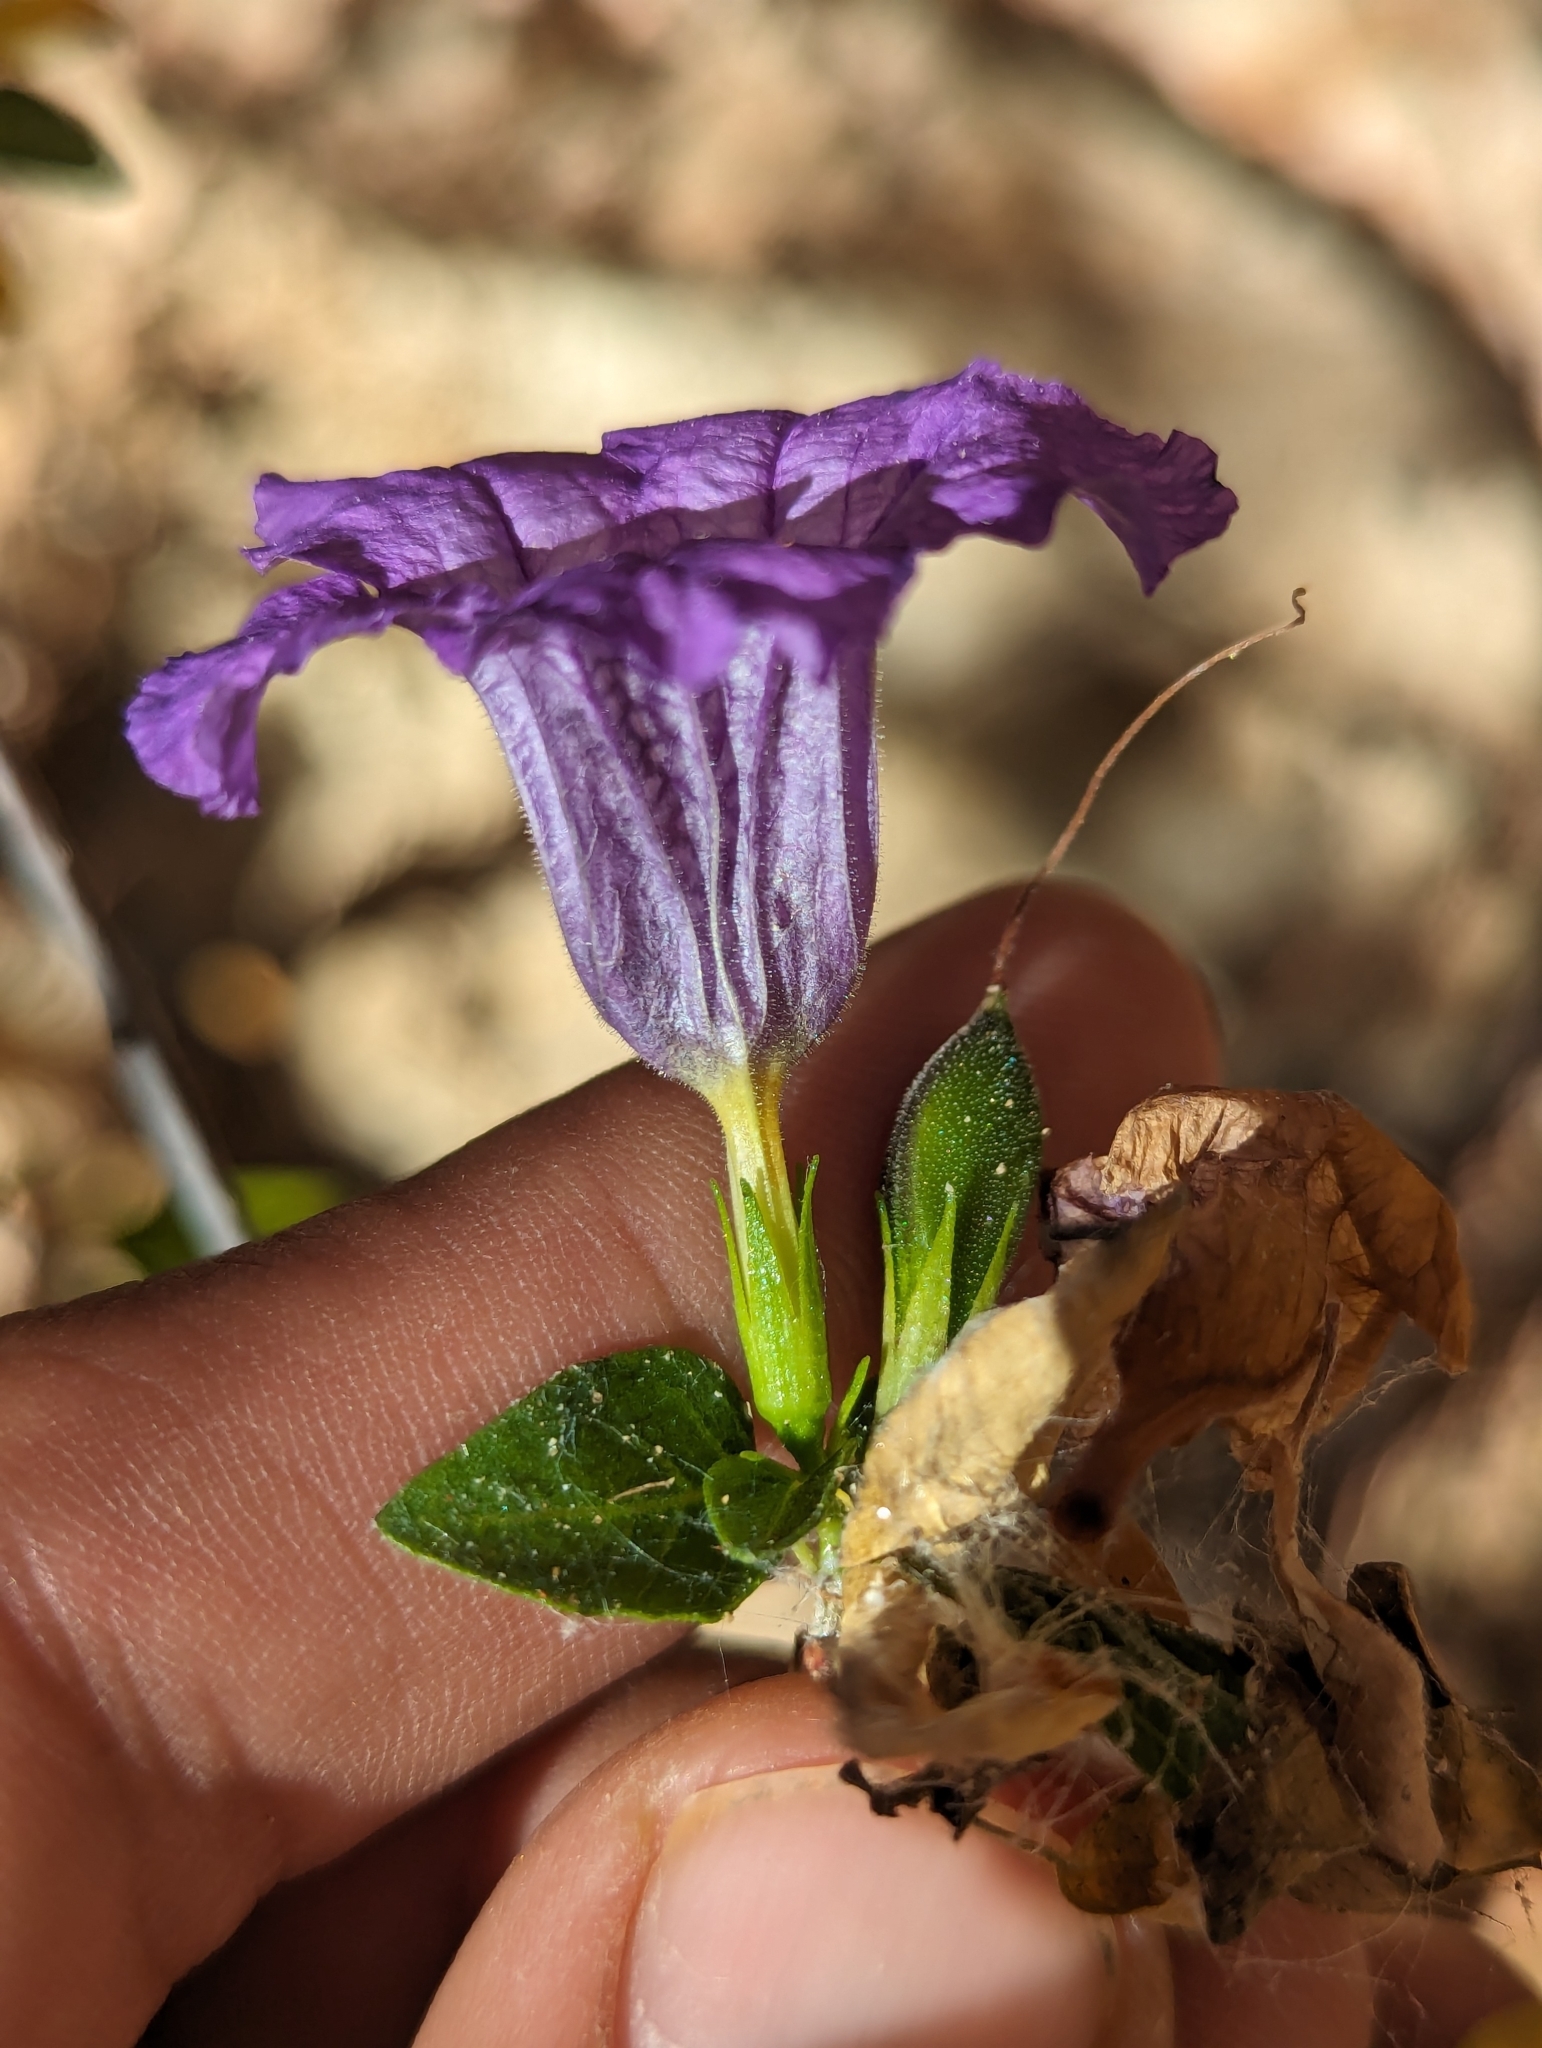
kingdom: Plantae
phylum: Tracheophyta
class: Magnoliopsida
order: Lamiales
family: Acanthaceae
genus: Ruellia
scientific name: Ruellia californica
